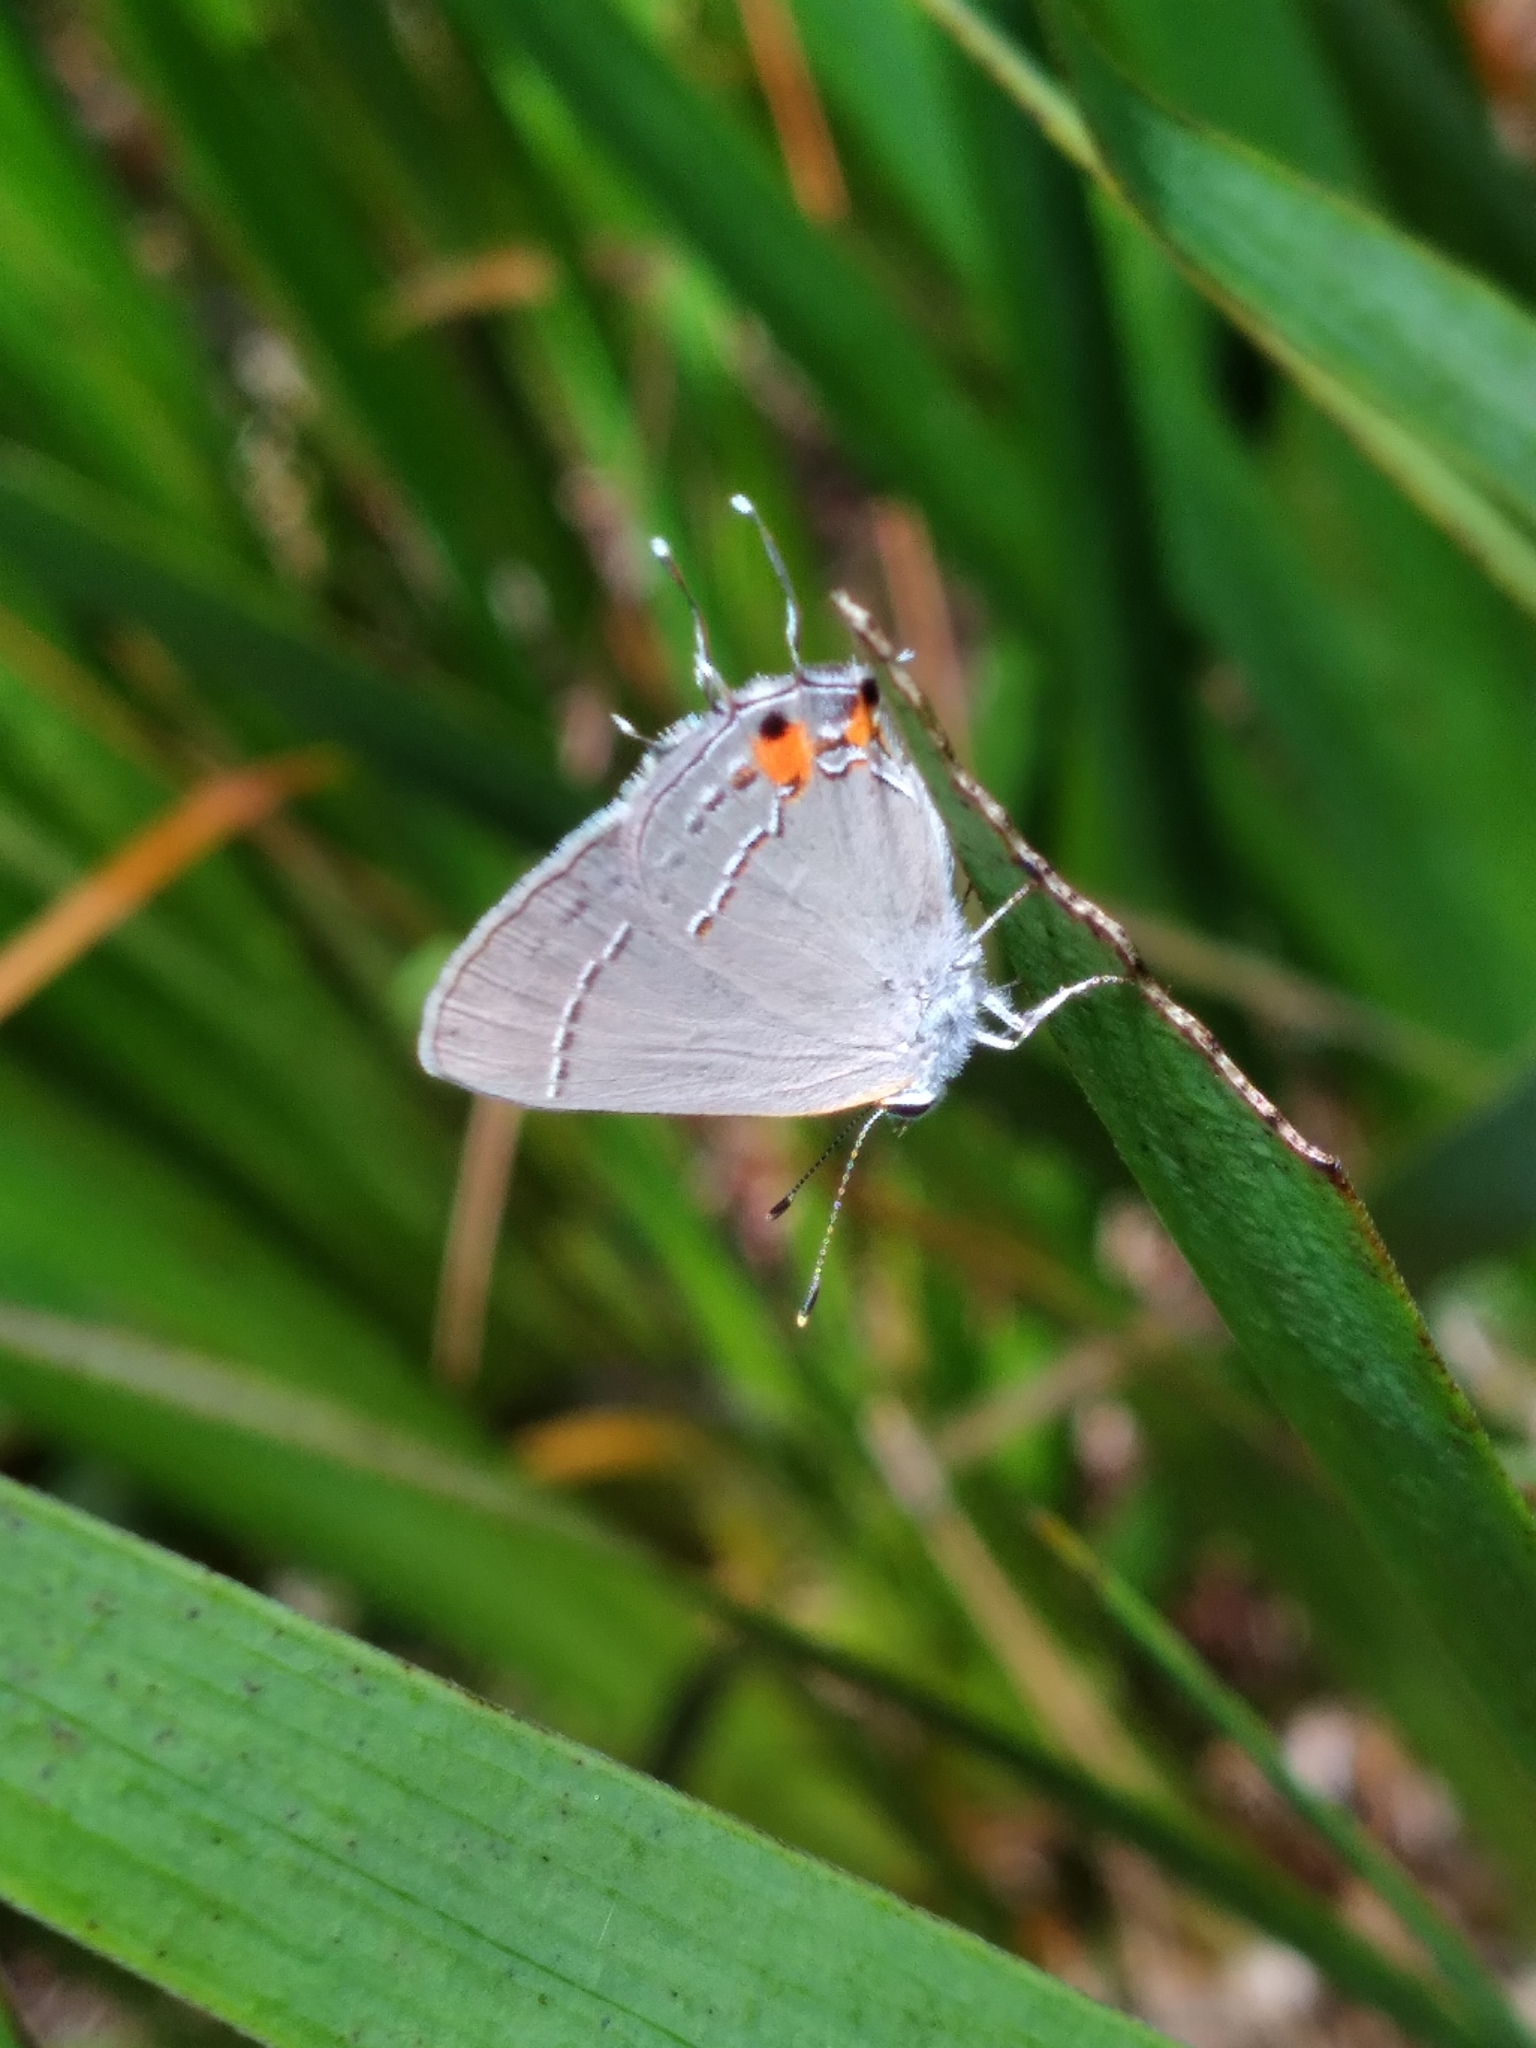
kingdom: Animalia
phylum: Arthropoda
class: Insecta
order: Lepidoptera
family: Lycaenidae
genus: Strymon
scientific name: Strymon melinus
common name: Gray hairstreak
